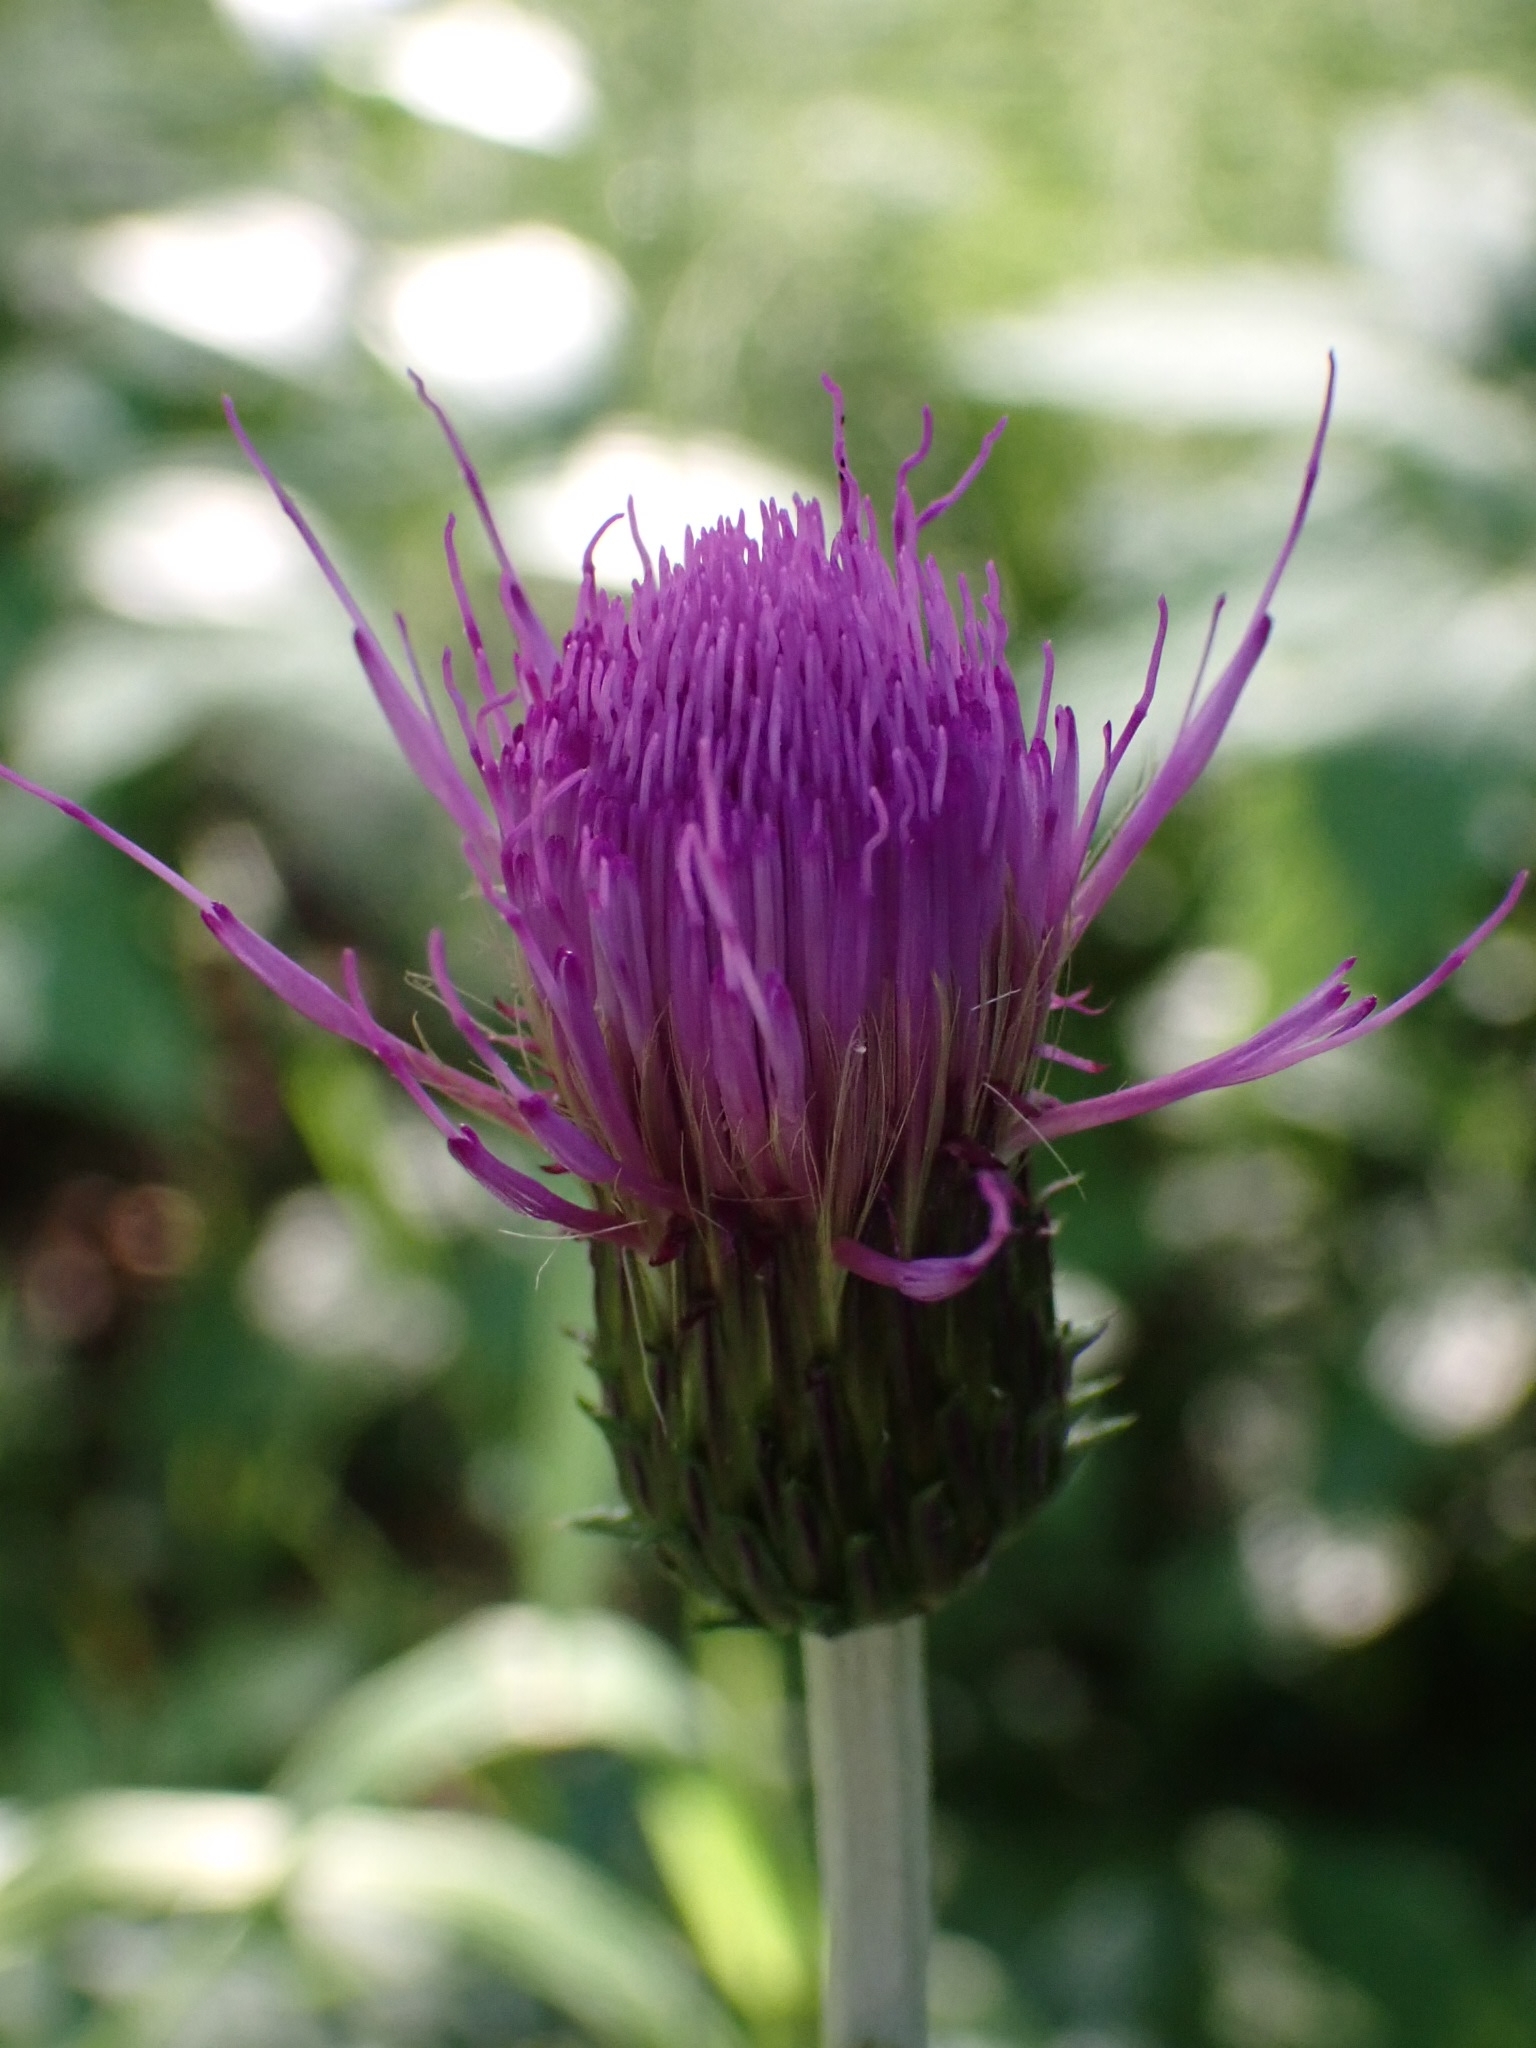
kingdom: Plantae
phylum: Tracheophyta
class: Magnoliopsida
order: Asterales
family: Asteraceae
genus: Cirsium
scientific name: Cirsium heterophyllum
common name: Melancholy thistle
